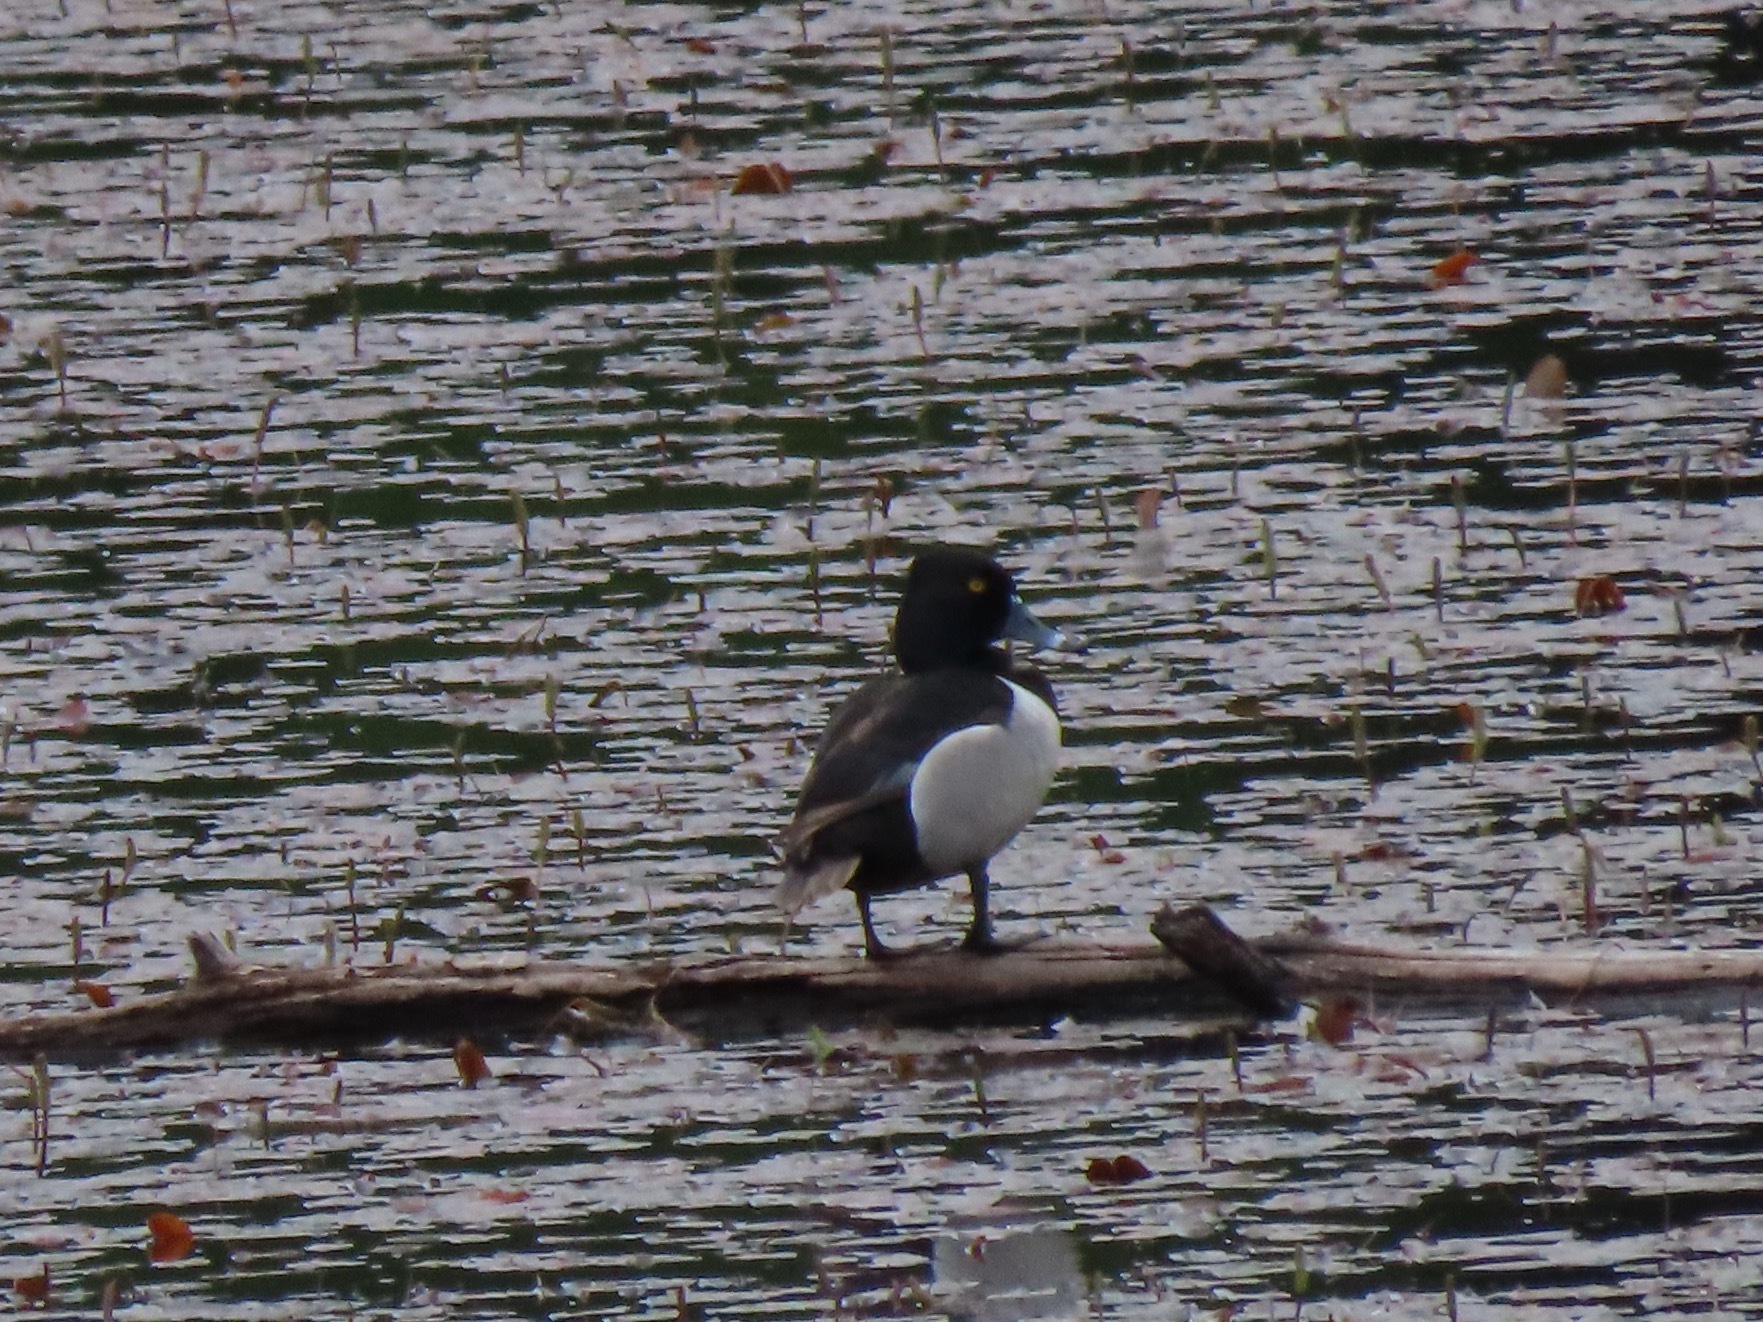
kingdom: Animalia
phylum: Chordata
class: Aves
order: Anseriformes
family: Anatidae
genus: Aythya
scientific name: Aythya collaris
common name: Ring-necked duck
